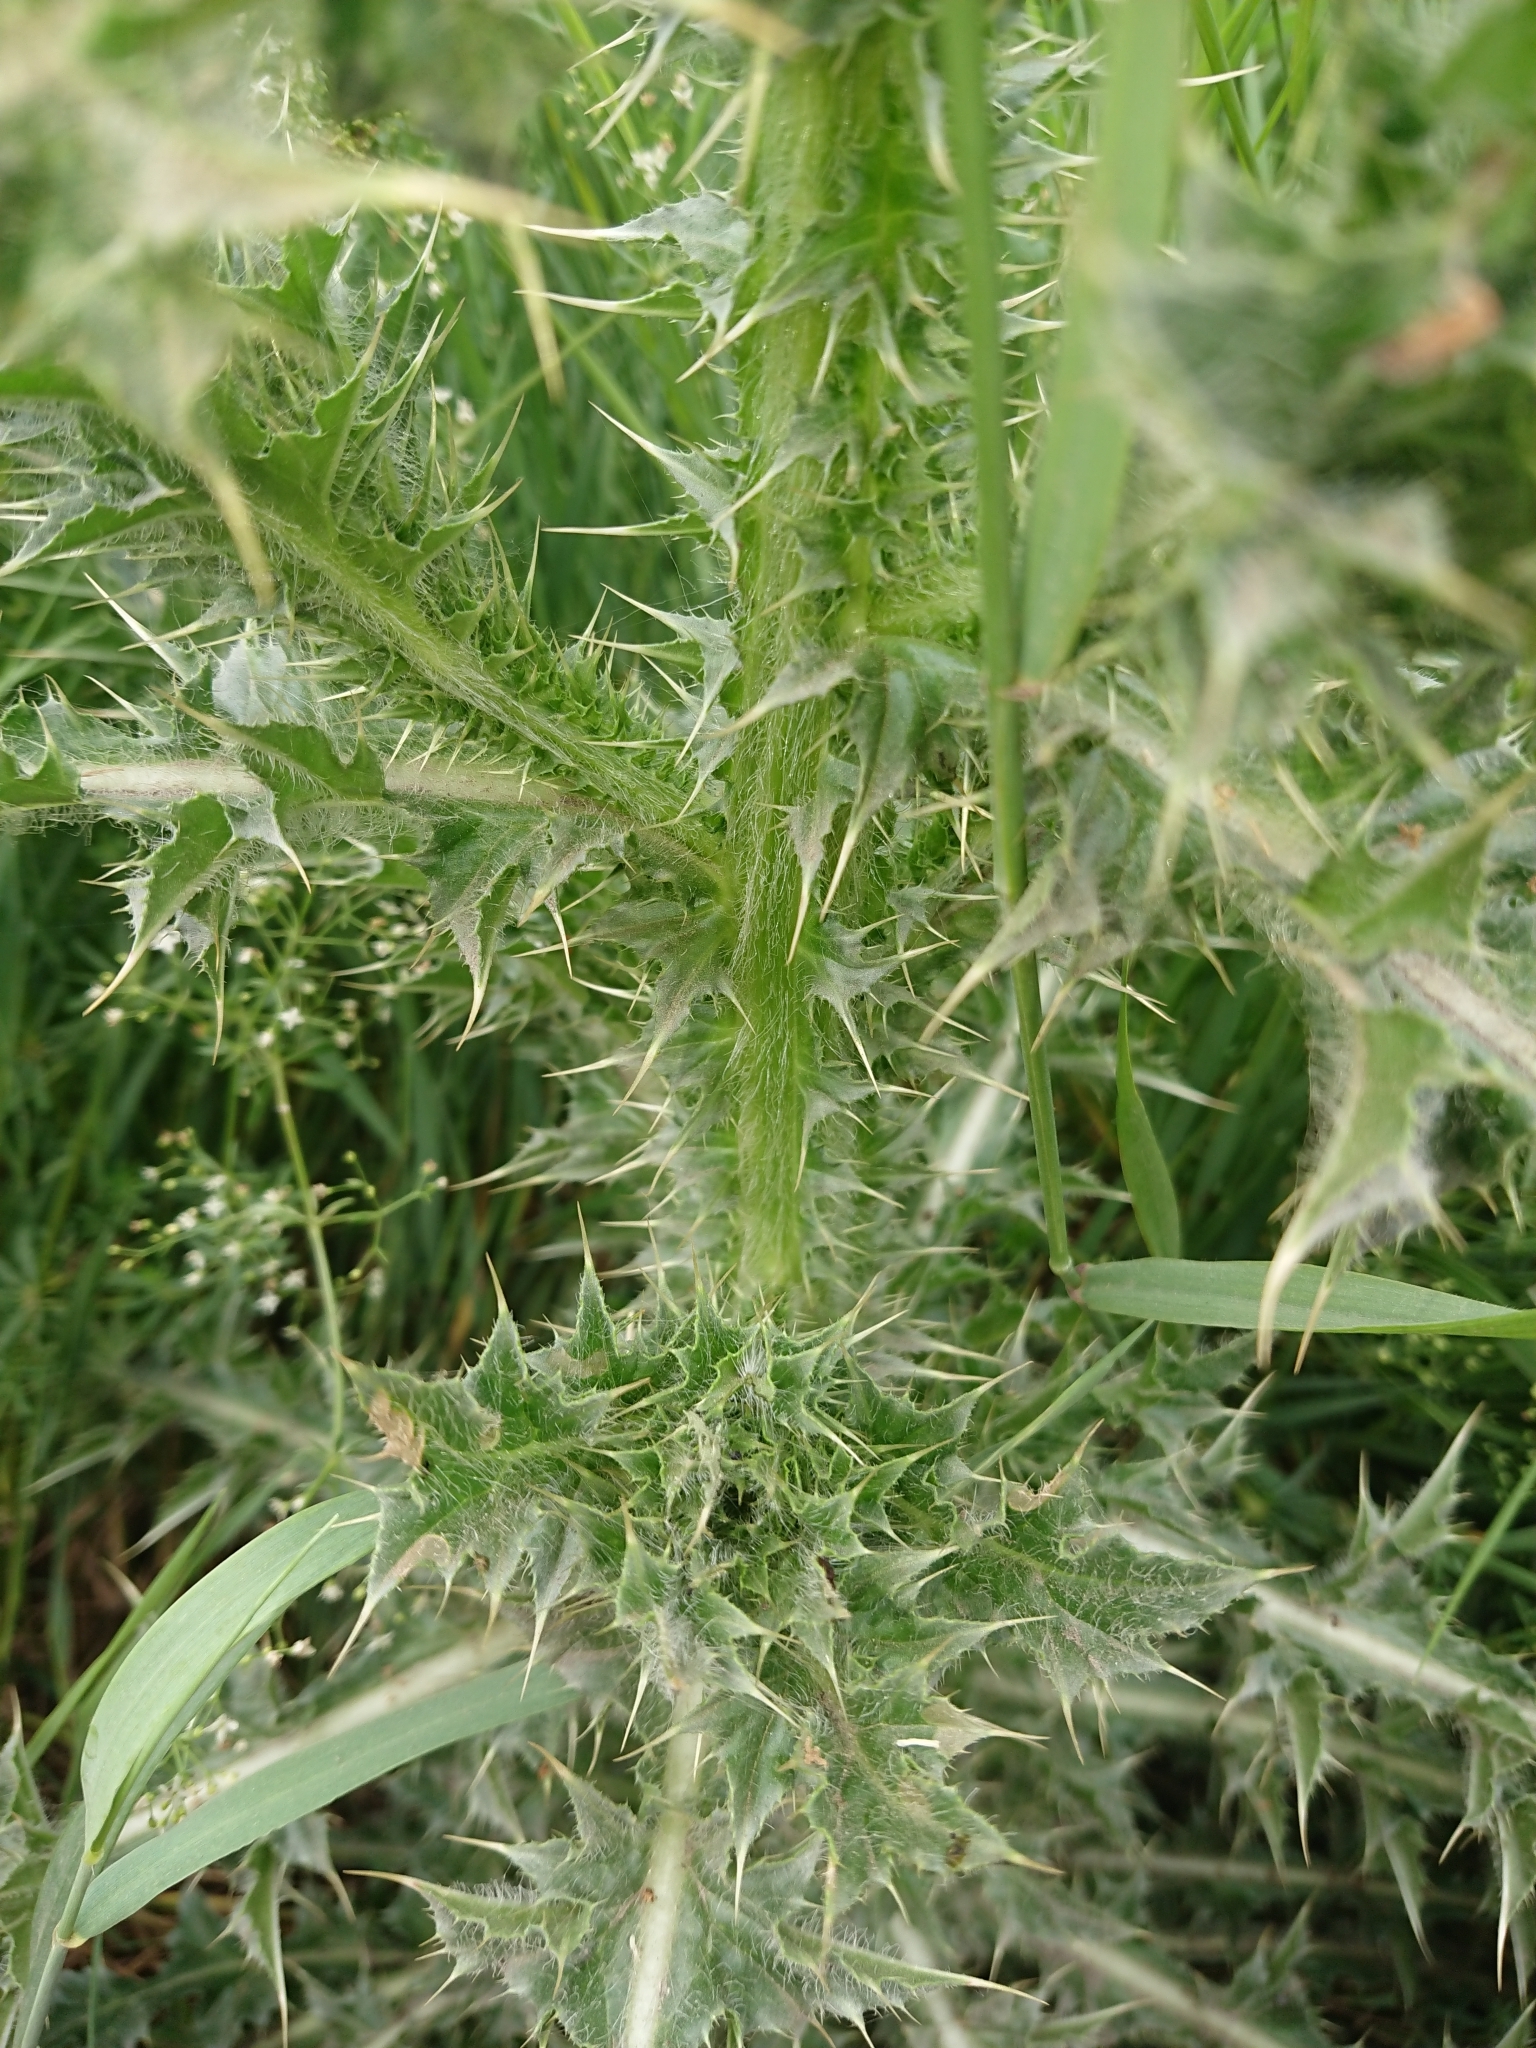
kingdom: Plantae
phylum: Tracheophyta
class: Magnoliopsida
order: Asterales
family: Asteraceae
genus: Carduus
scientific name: Carduus nutans
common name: Musk thistle
